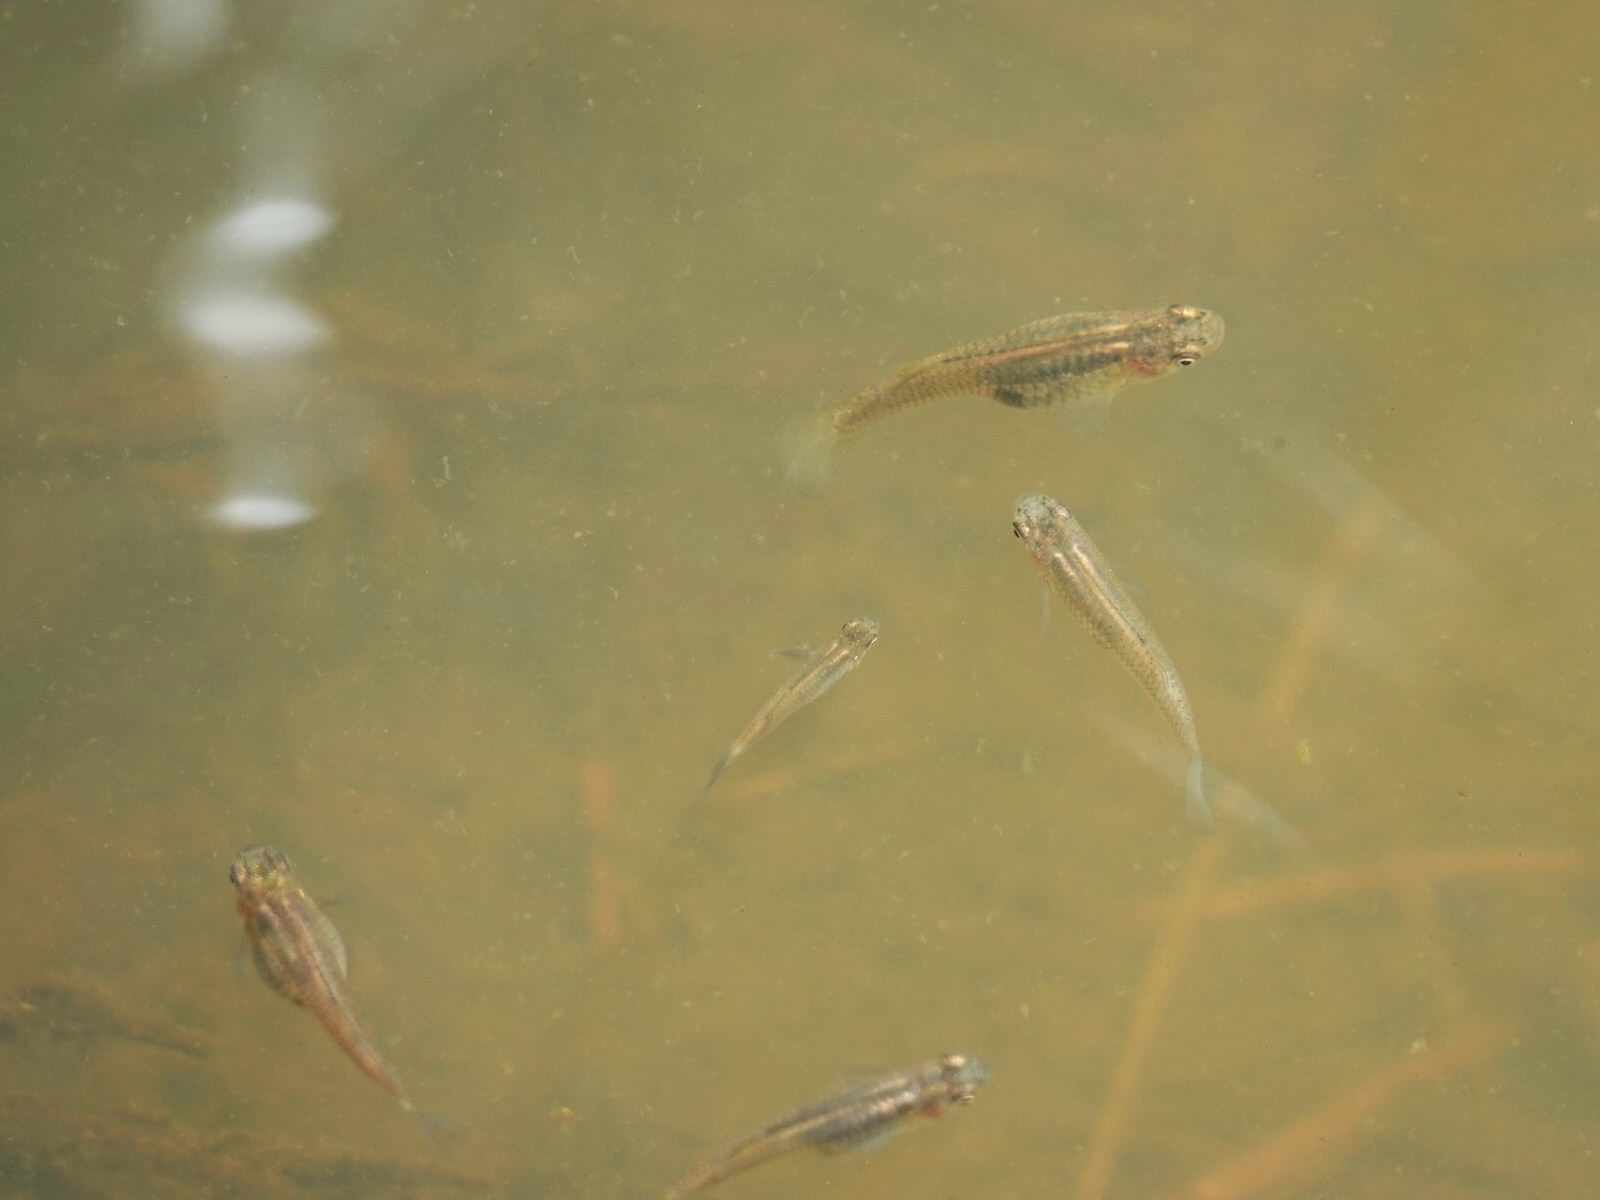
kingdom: Animalia
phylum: Chordata
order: Cyprinodontiformes
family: Poeciliidae
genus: Gambusia
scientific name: Gambusia affinis
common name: Mosquitofish
